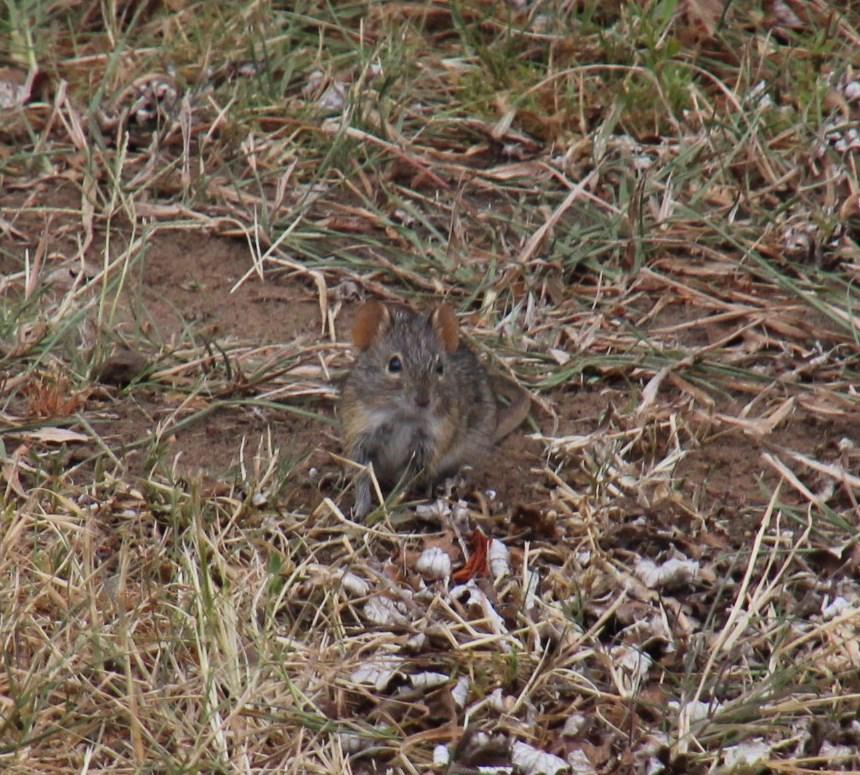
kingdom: Animalia
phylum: Chordata
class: Mammalia
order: Rodentia
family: Muridae
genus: Rhabdomys
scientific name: Rhabdomys pumilio
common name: Xeric four-striped grass rat
